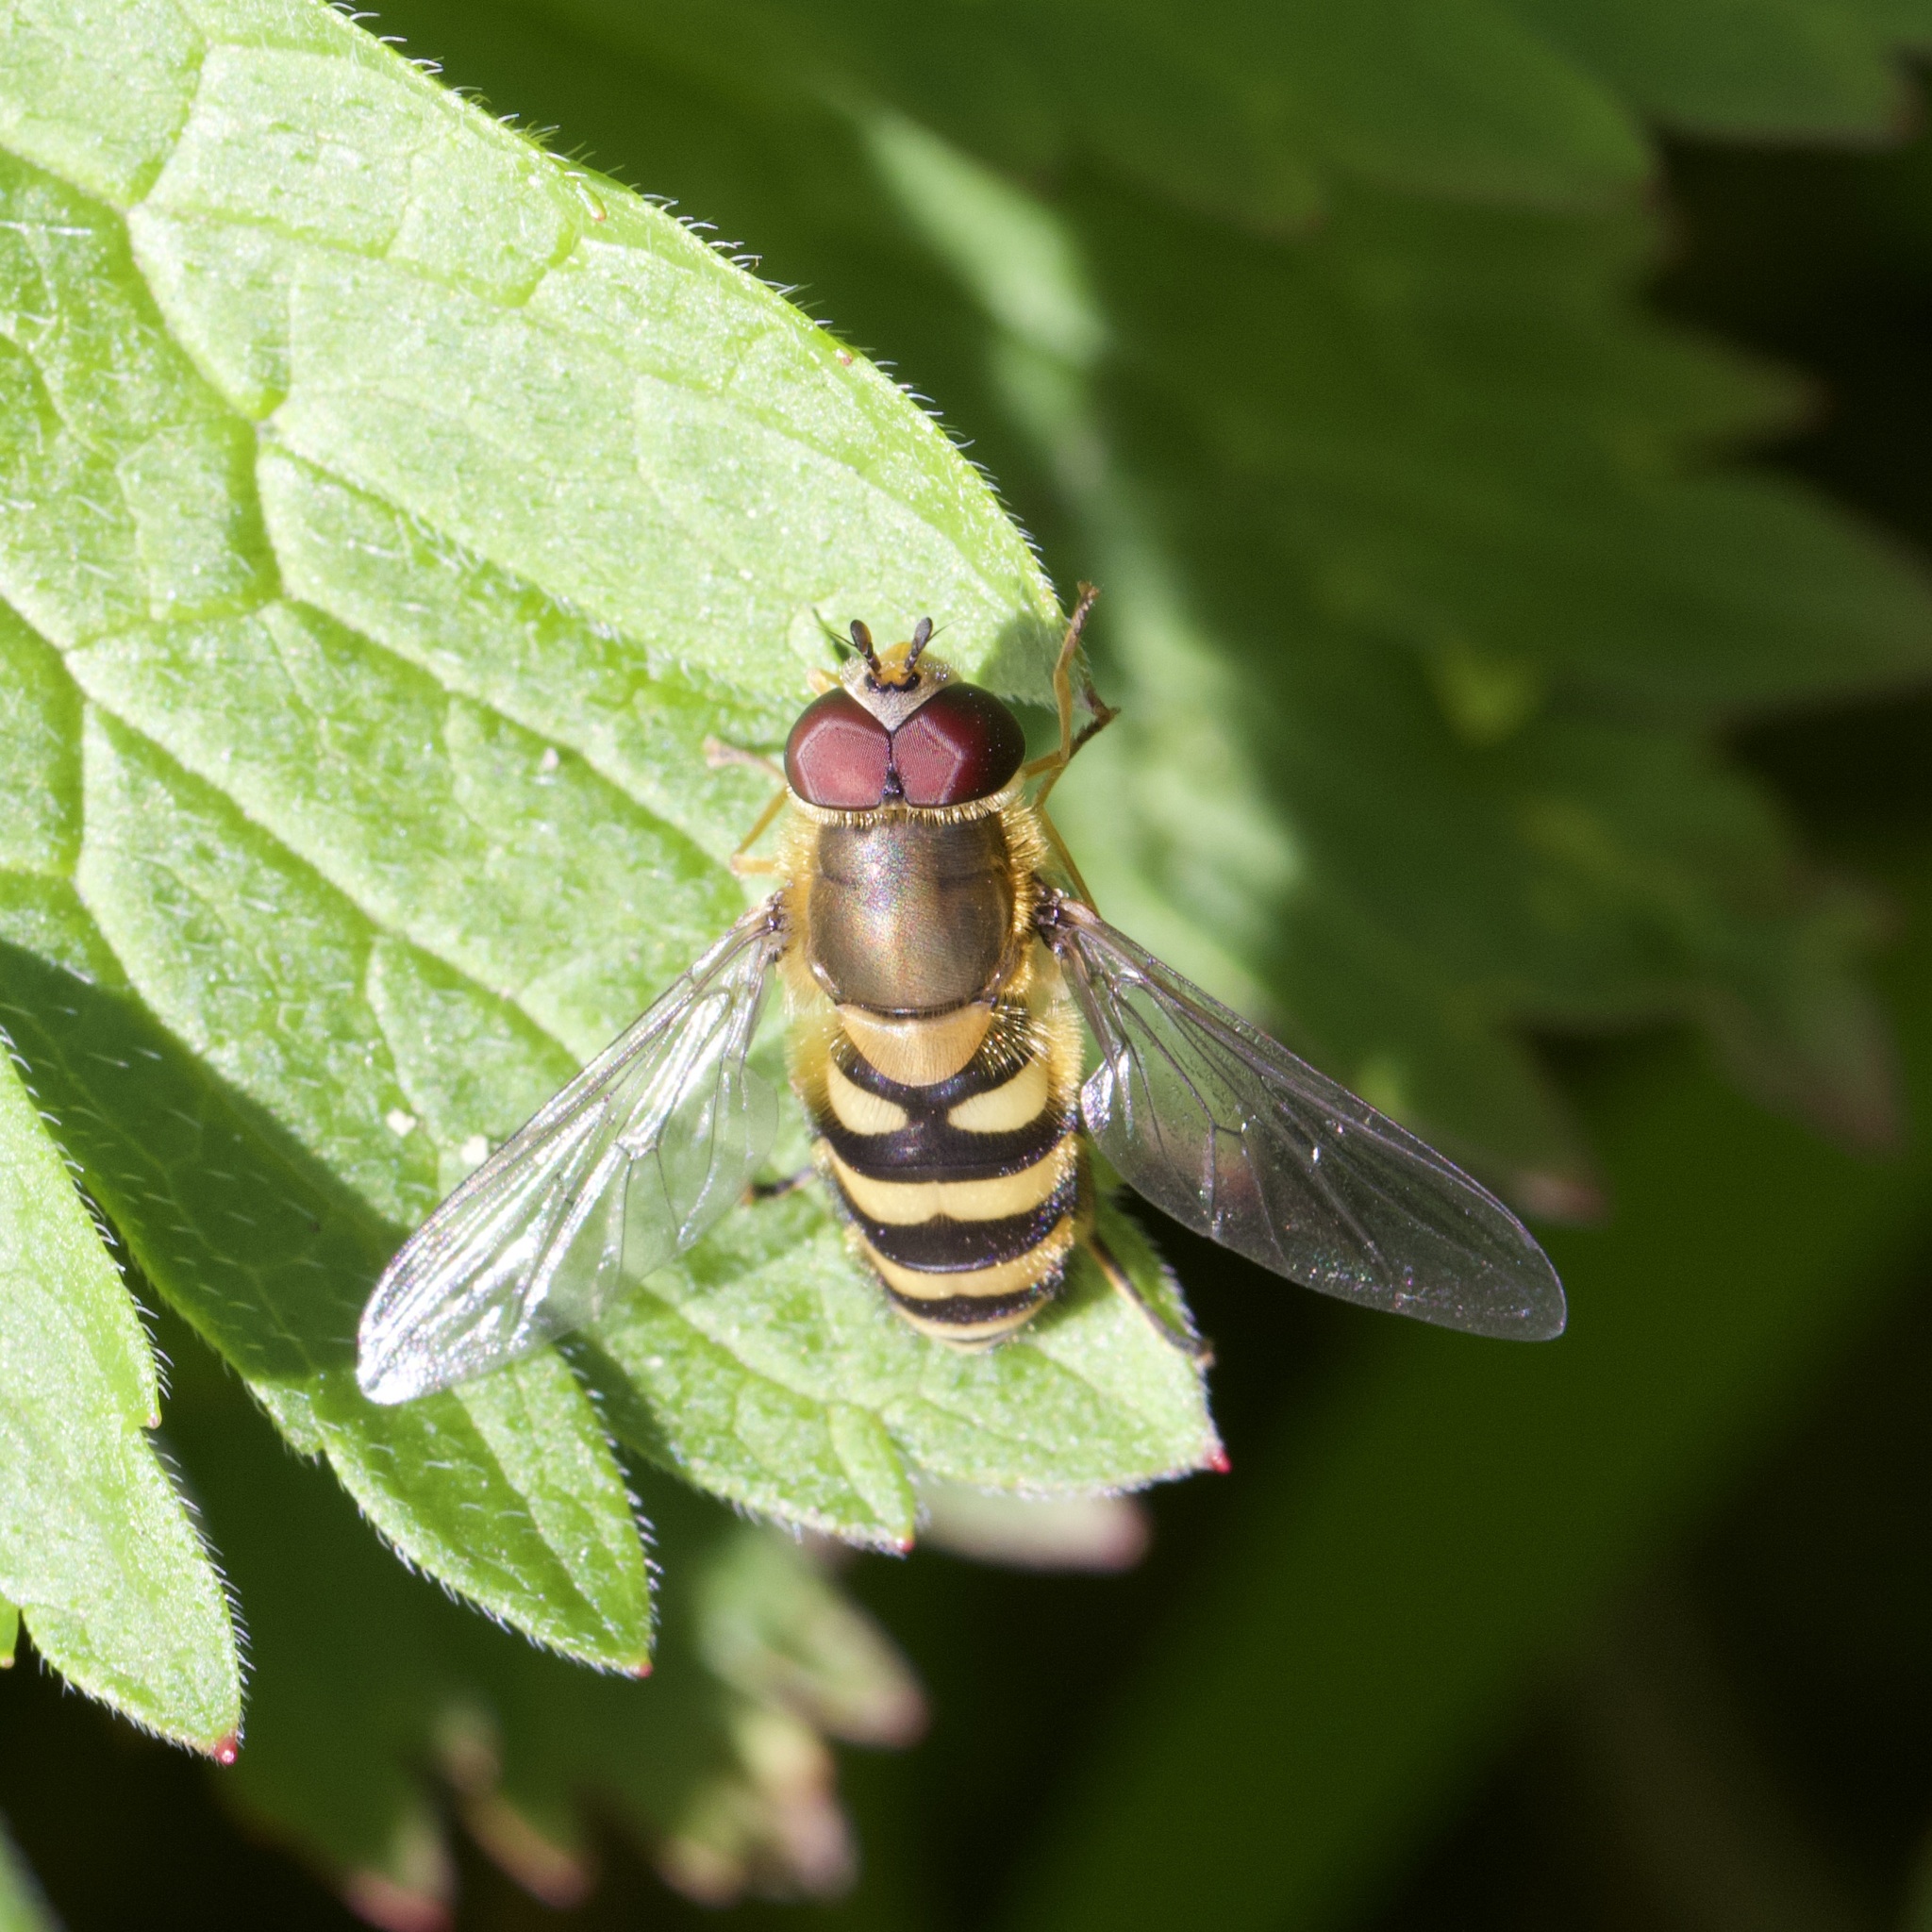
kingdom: Animalia
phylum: Arthropoda
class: Insecta
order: Diptera
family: Syrphidae
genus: Syrphus
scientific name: Syrphus
